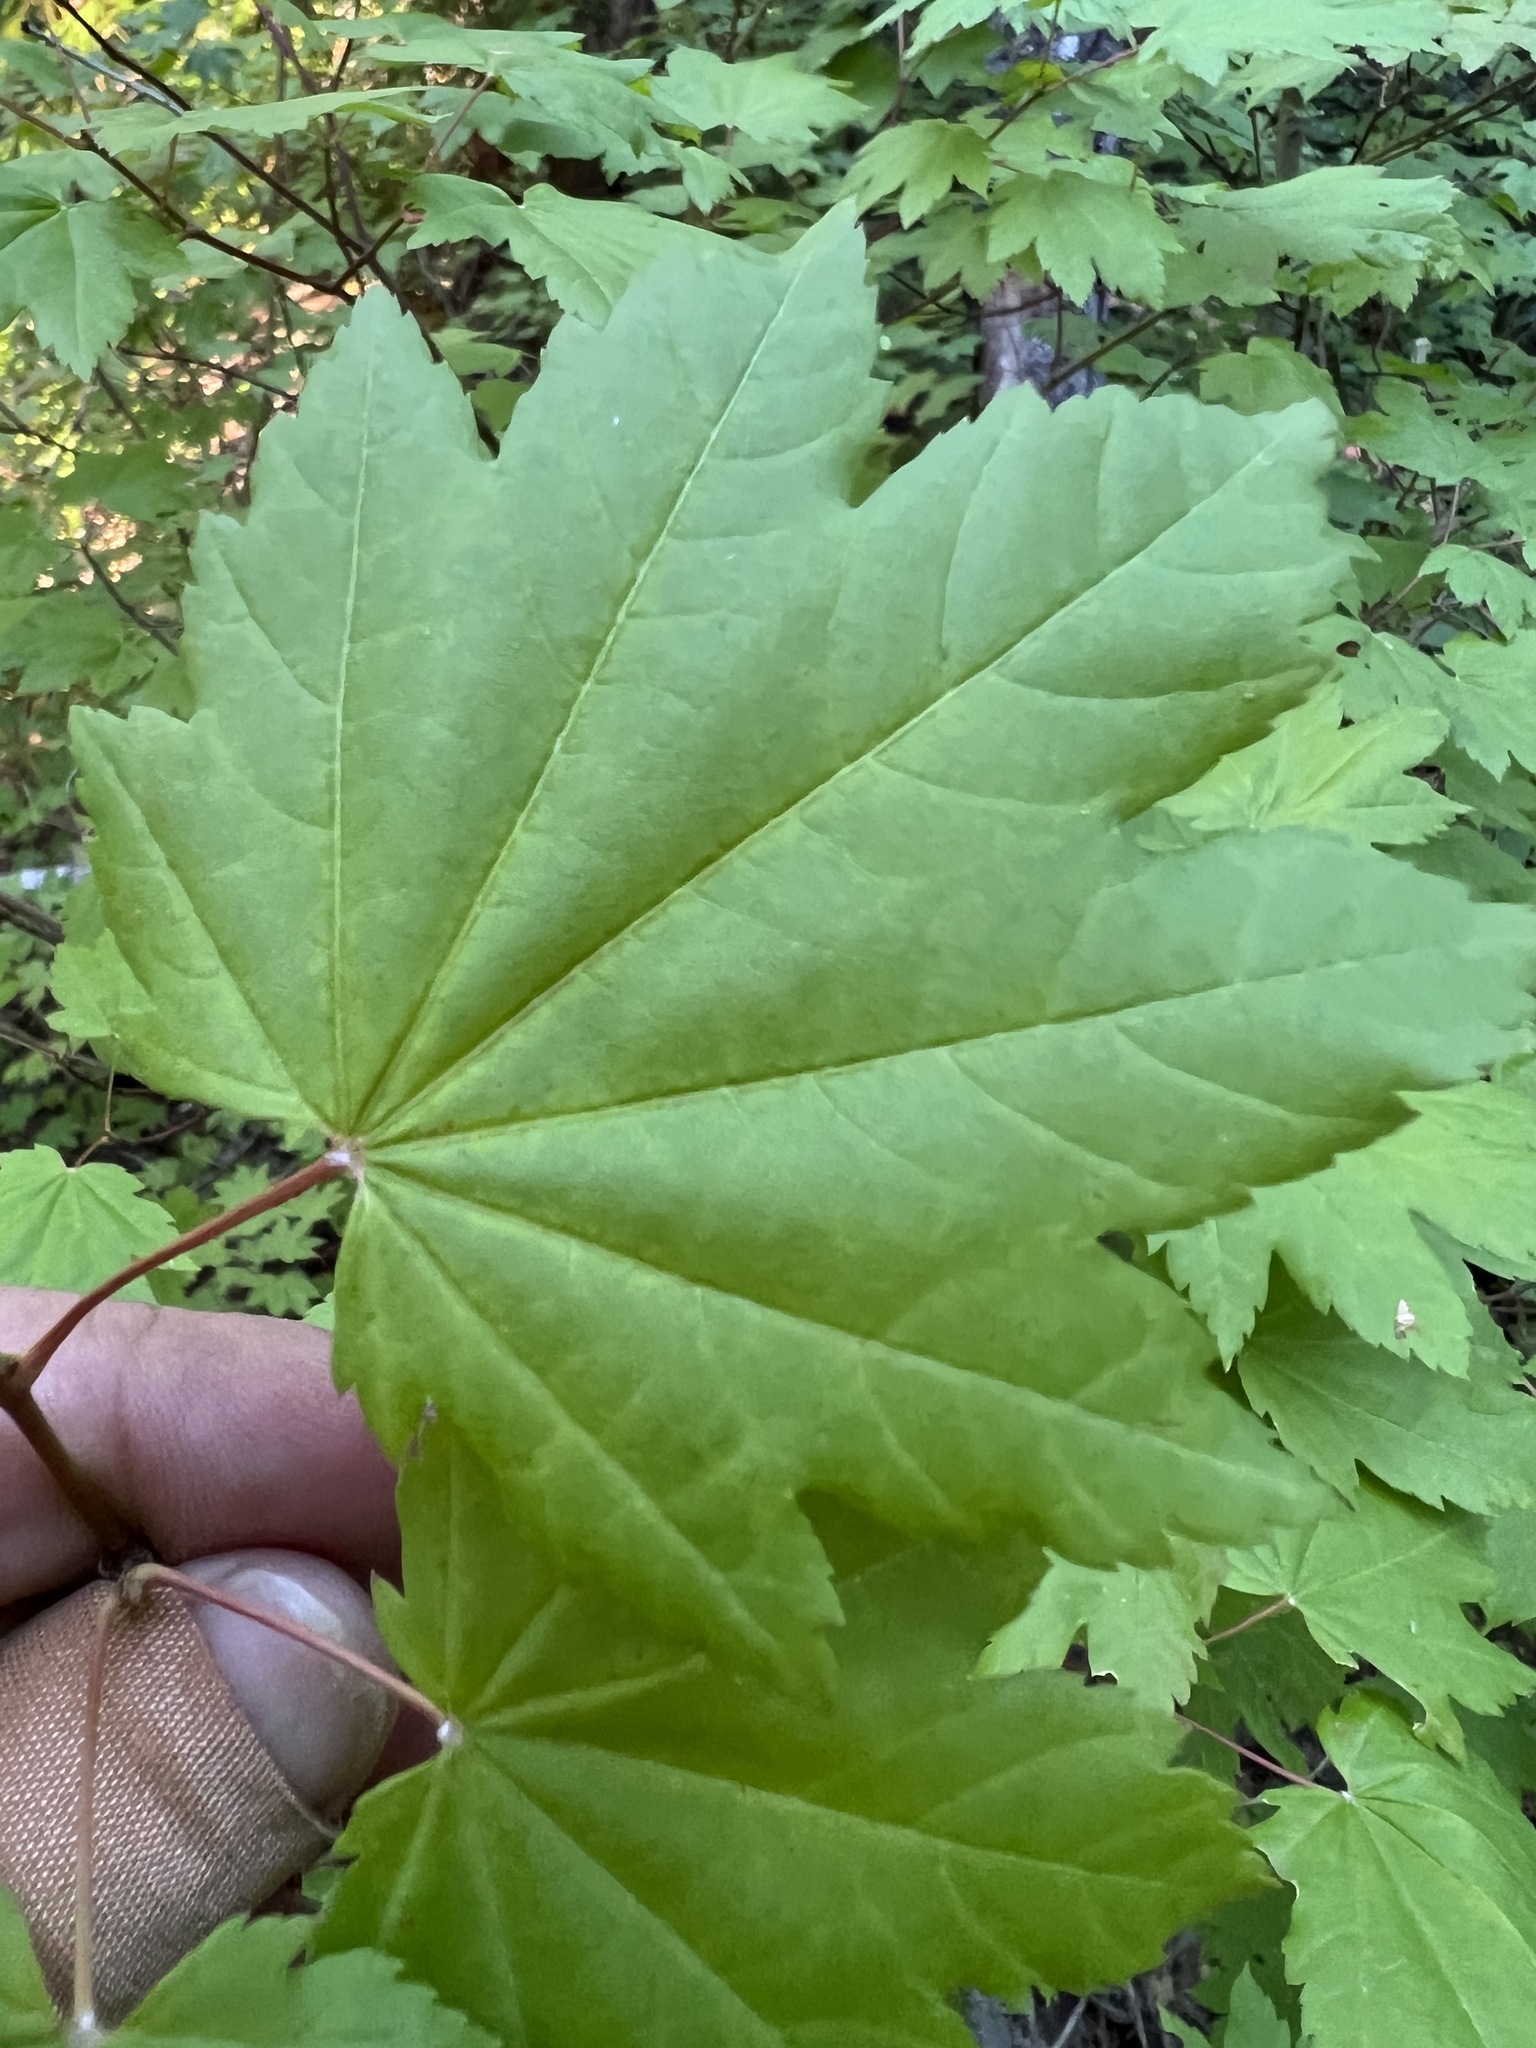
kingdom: Plantae
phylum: Tracheophyta
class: Magnoliopsida
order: Sapindales
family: Sapindaceae
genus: Acer
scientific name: Acer circinatum
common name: Vine maple
